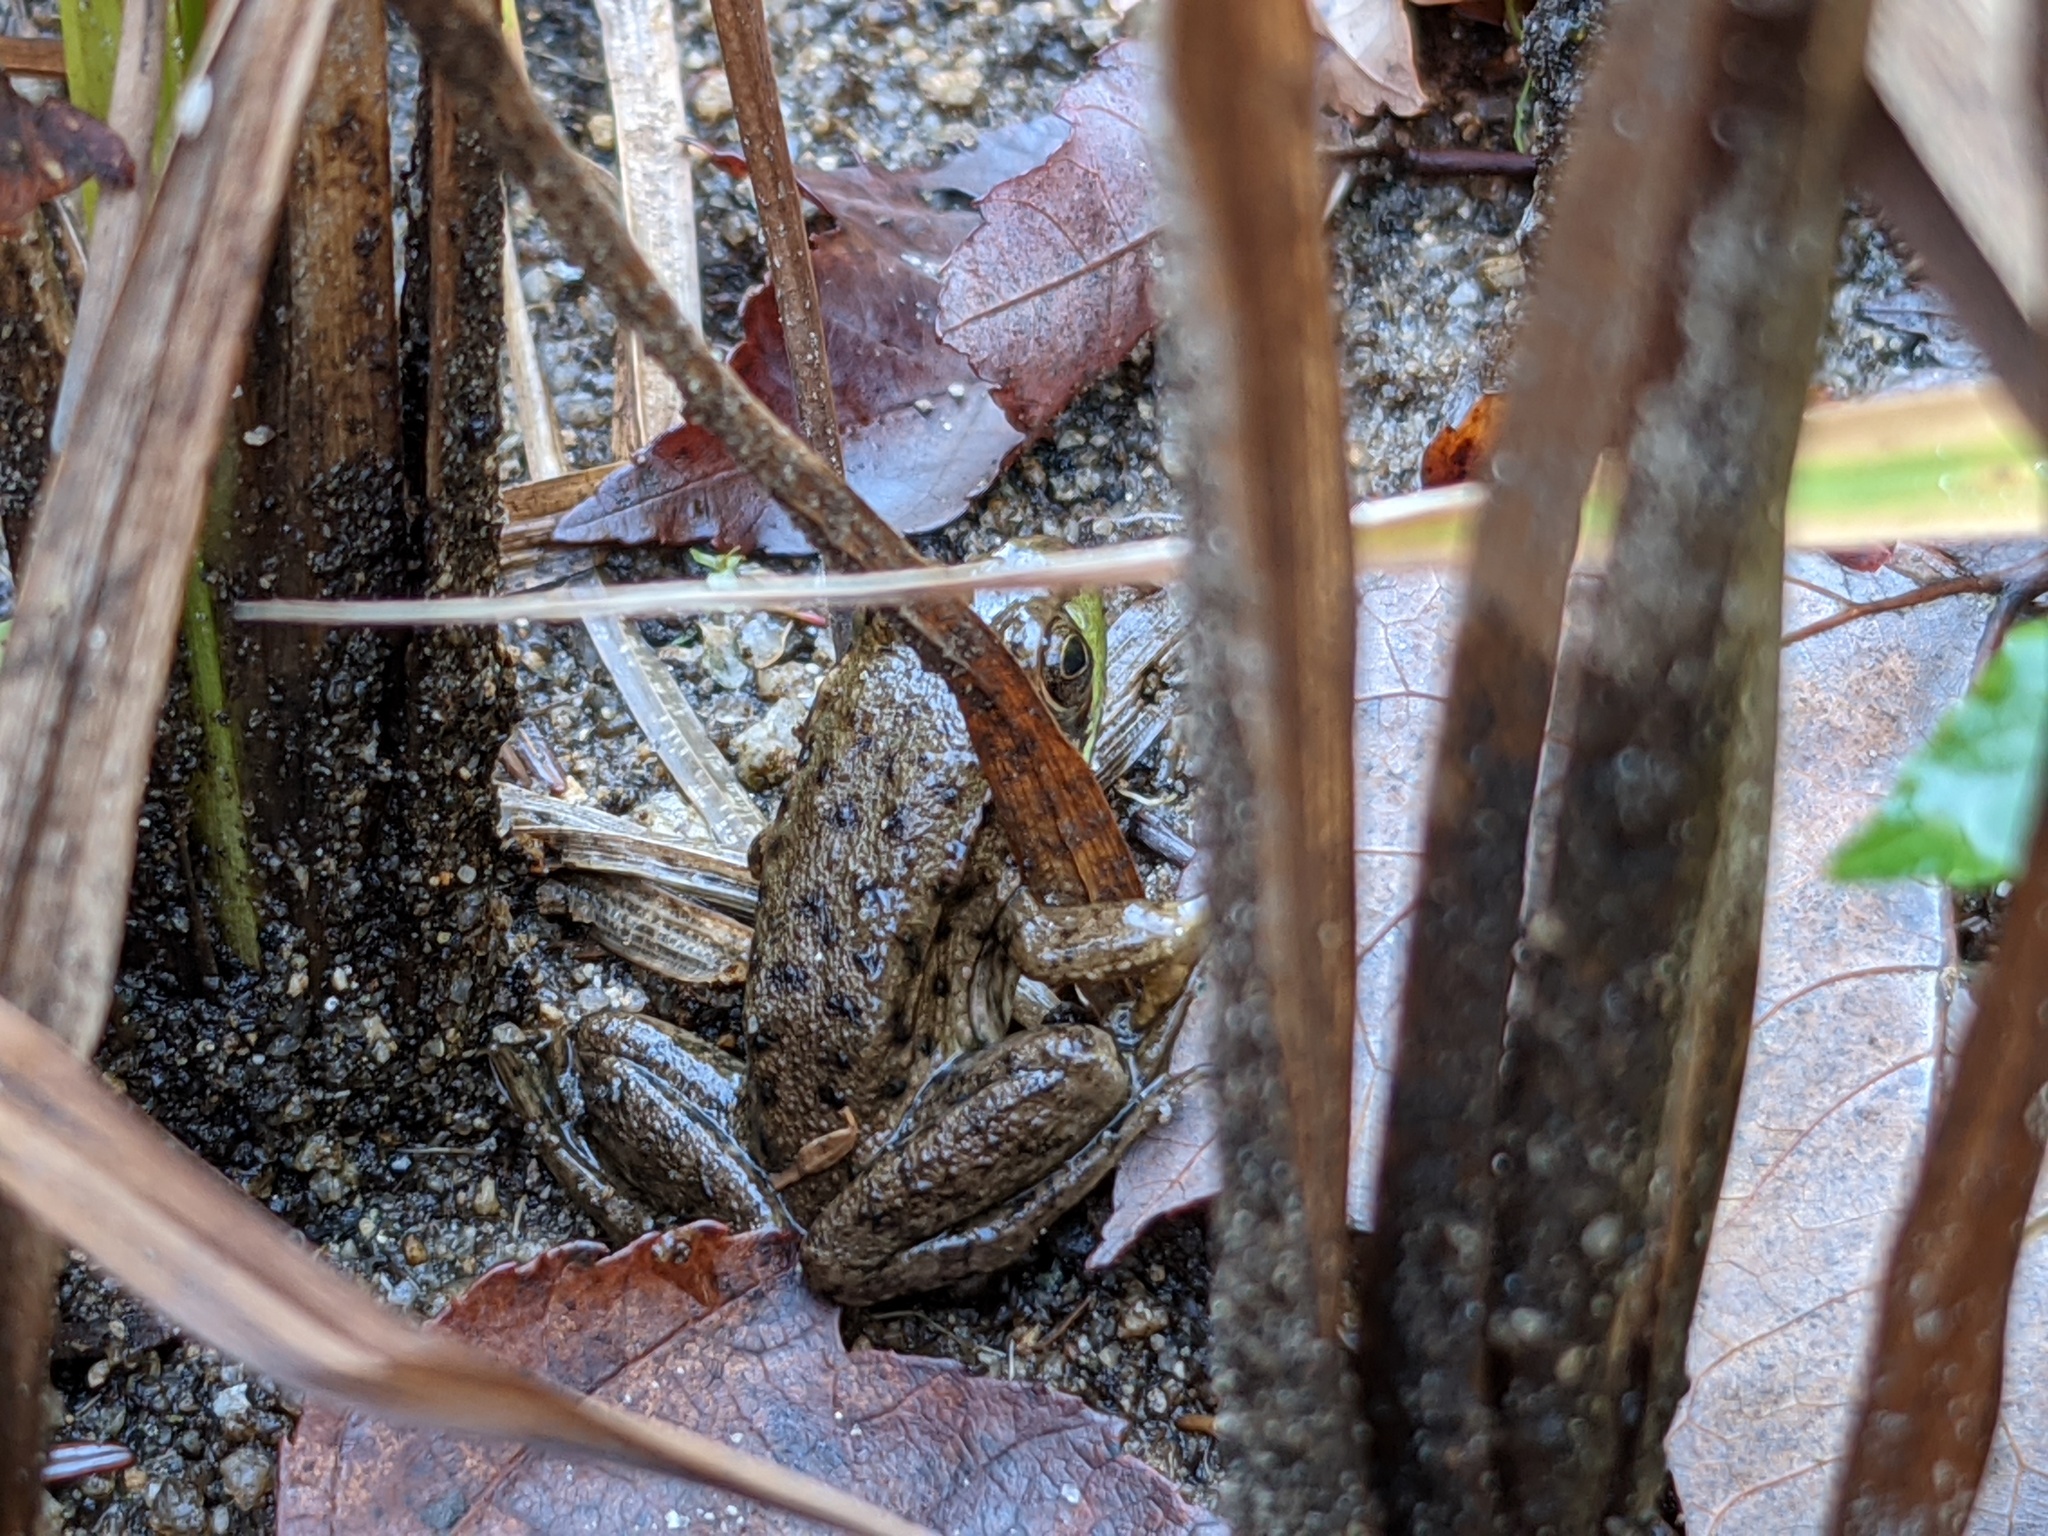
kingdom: Animalia
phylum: Chordata
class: Amphibia
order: Anura
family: Ranidae
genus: Lithobates
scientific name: Lithobates clamitans
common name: Green frog
